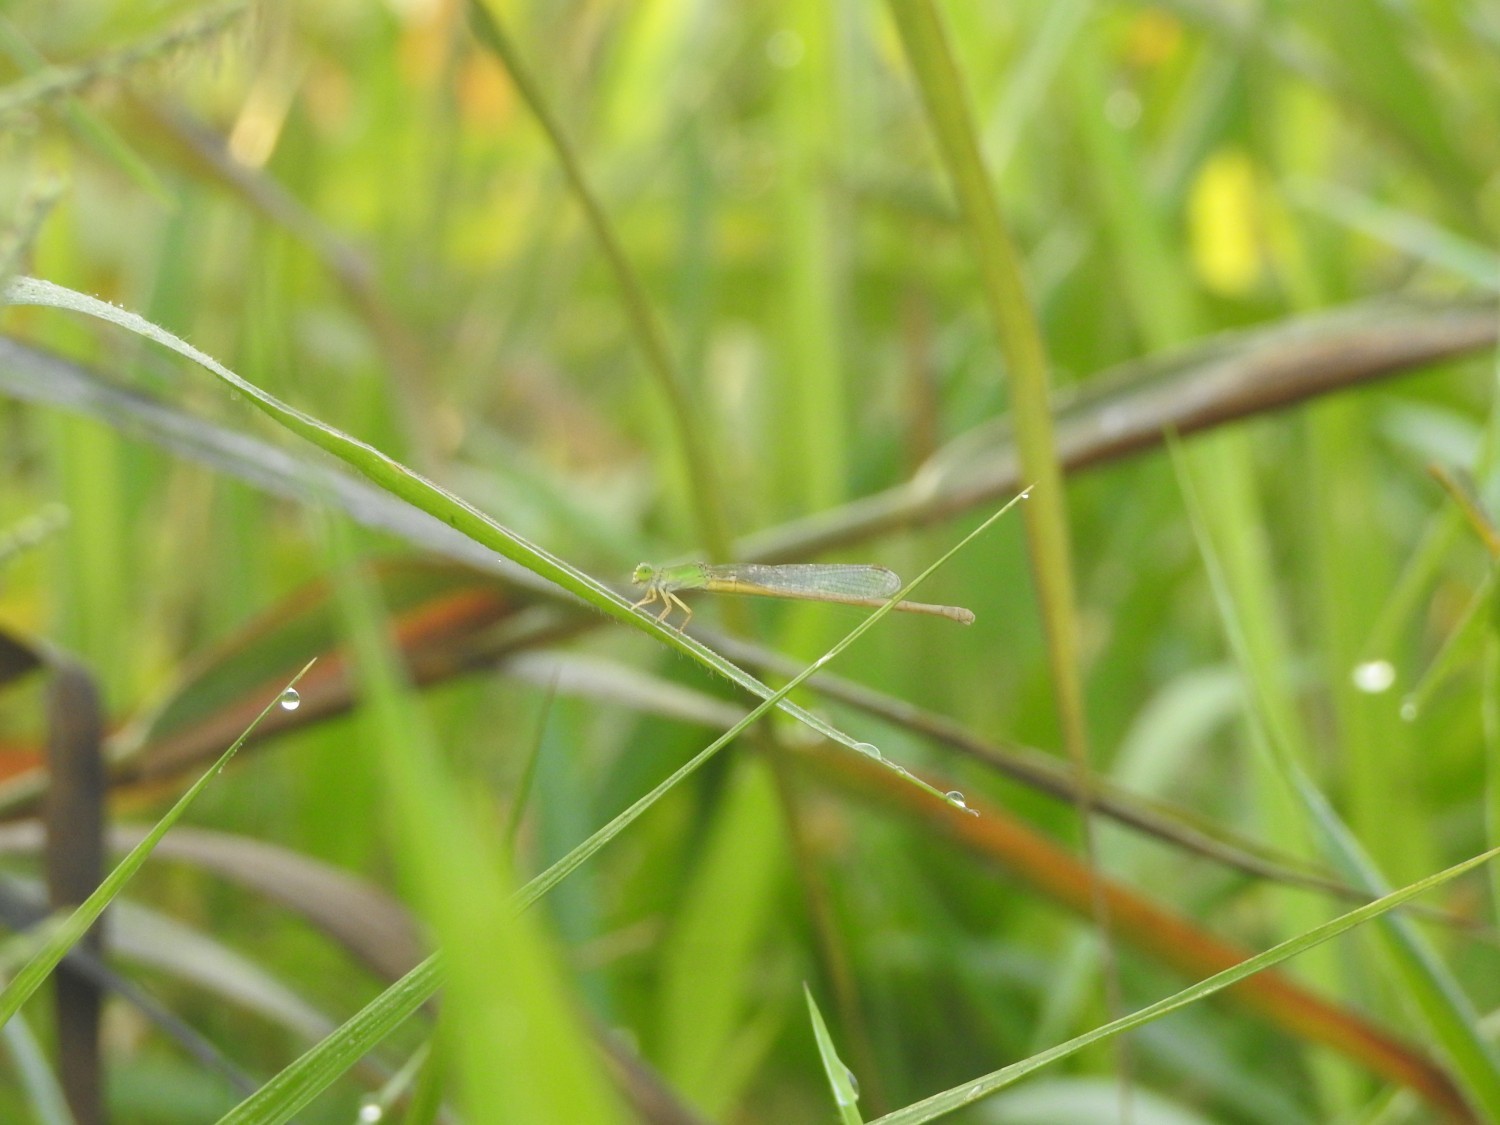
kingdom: Animalia
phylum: Arthropoda
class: Insecta
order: Odonata
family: Coenagrionidae
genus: Ceriagrion
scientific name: Ceriagrion coromandelianum
